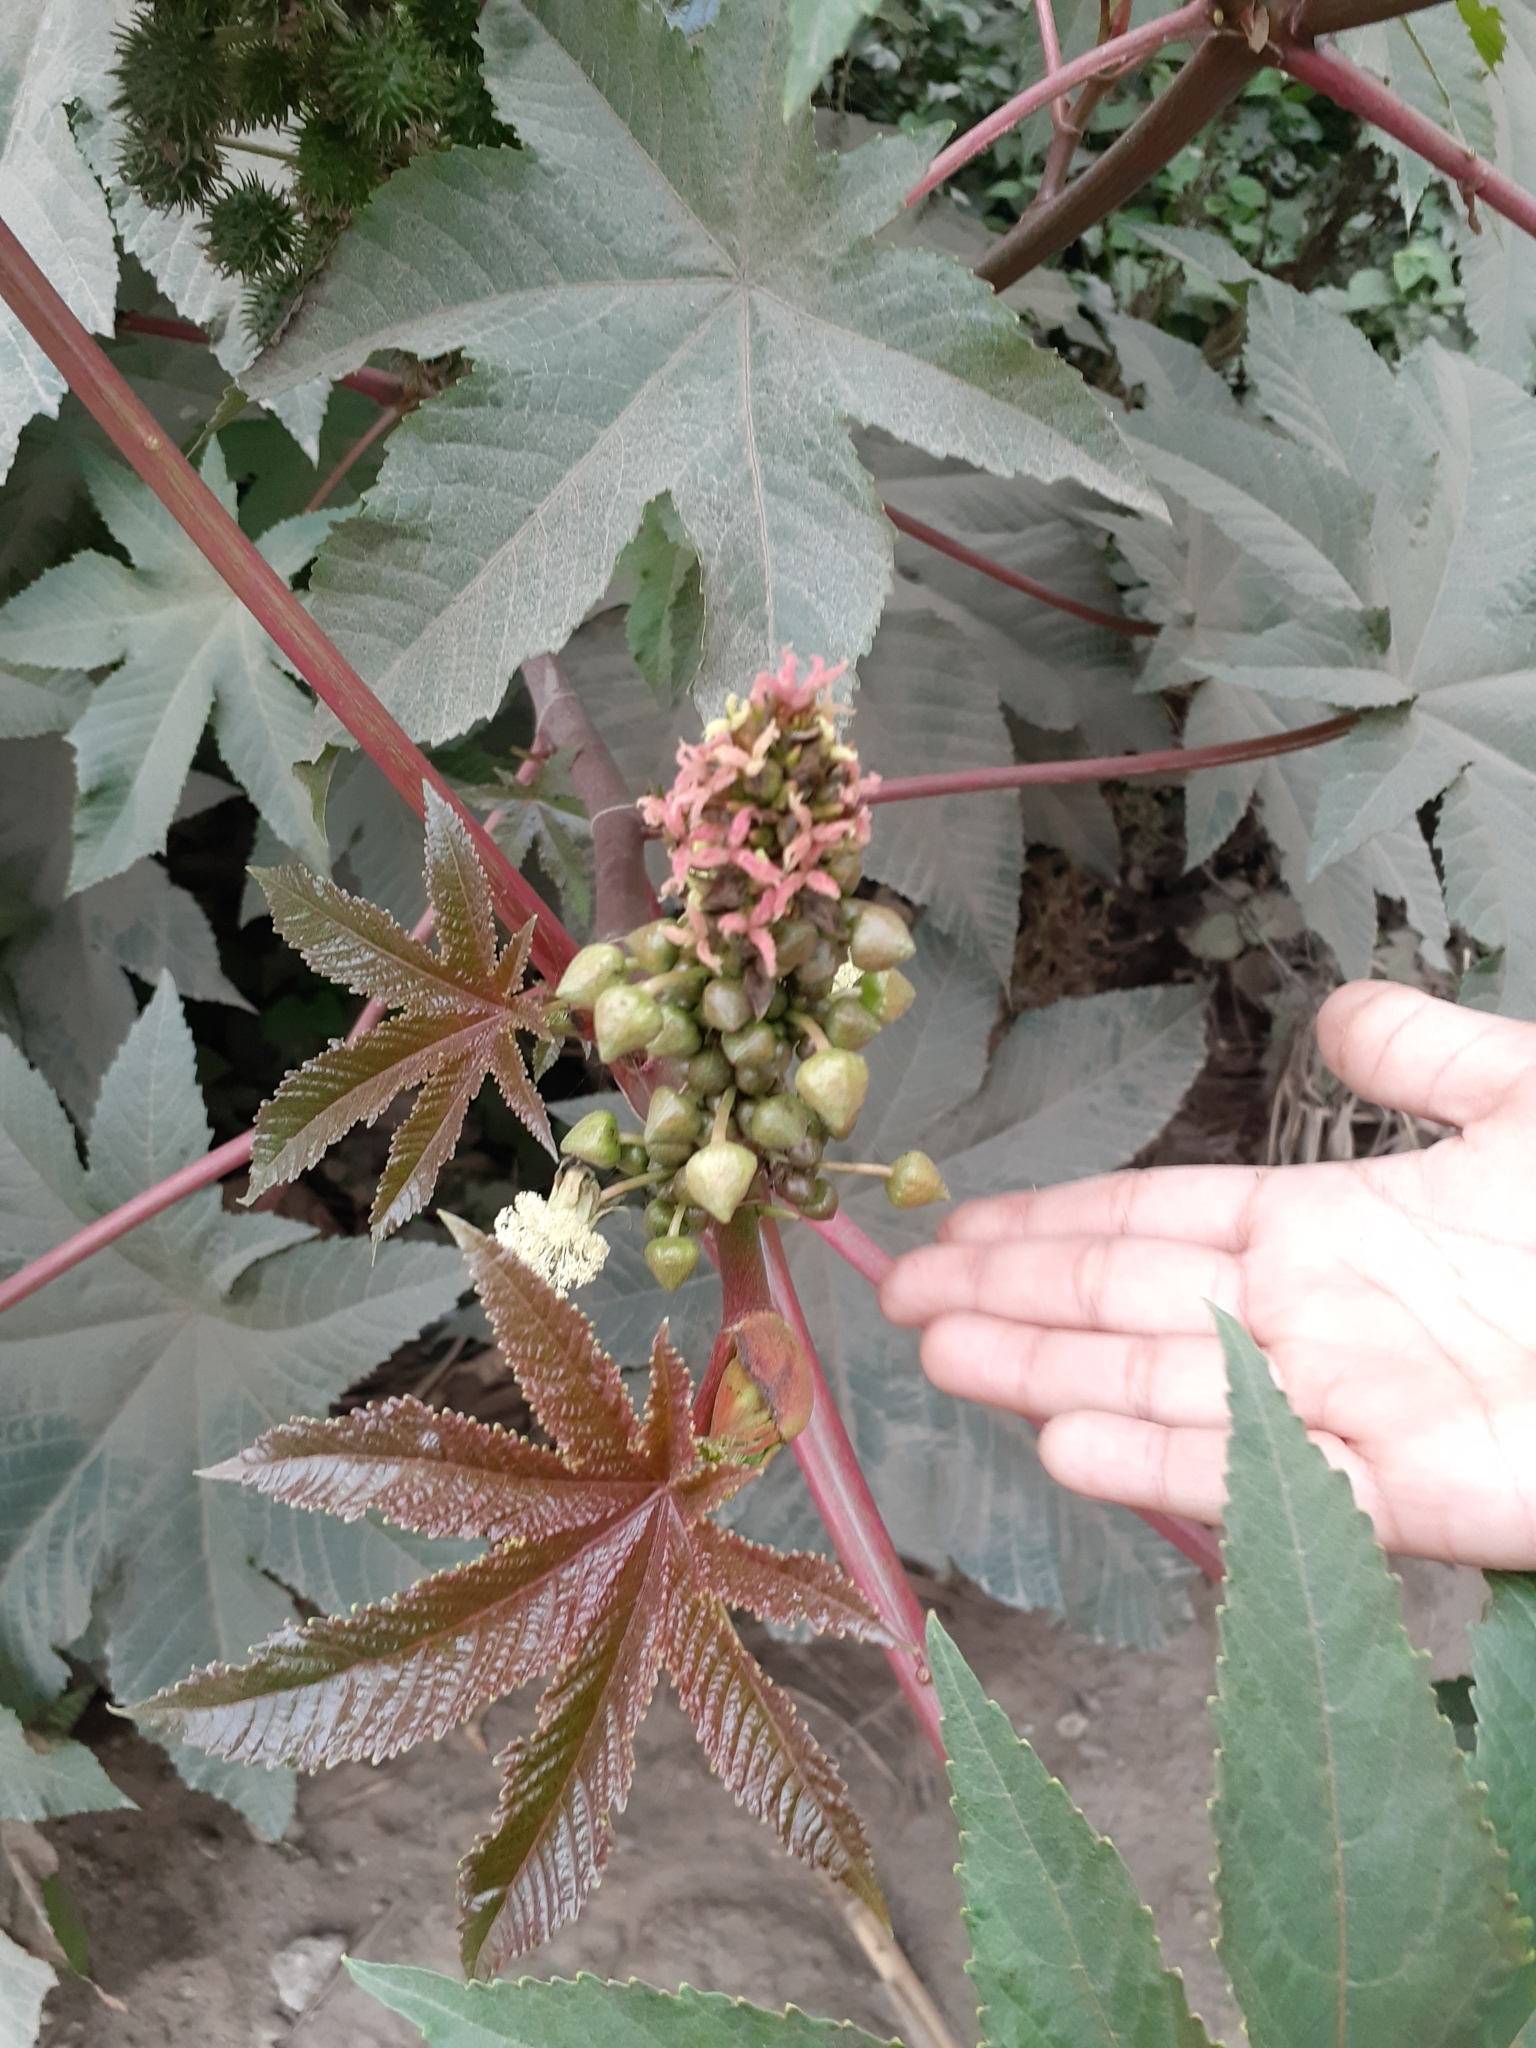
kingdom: Plantae
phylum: Tracheophyta
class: Magnoliopsida
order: Malpighiales
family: Euphorbiaceae
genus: Ricinus
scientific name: Ricinus communis
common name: Castor-oil-plant
